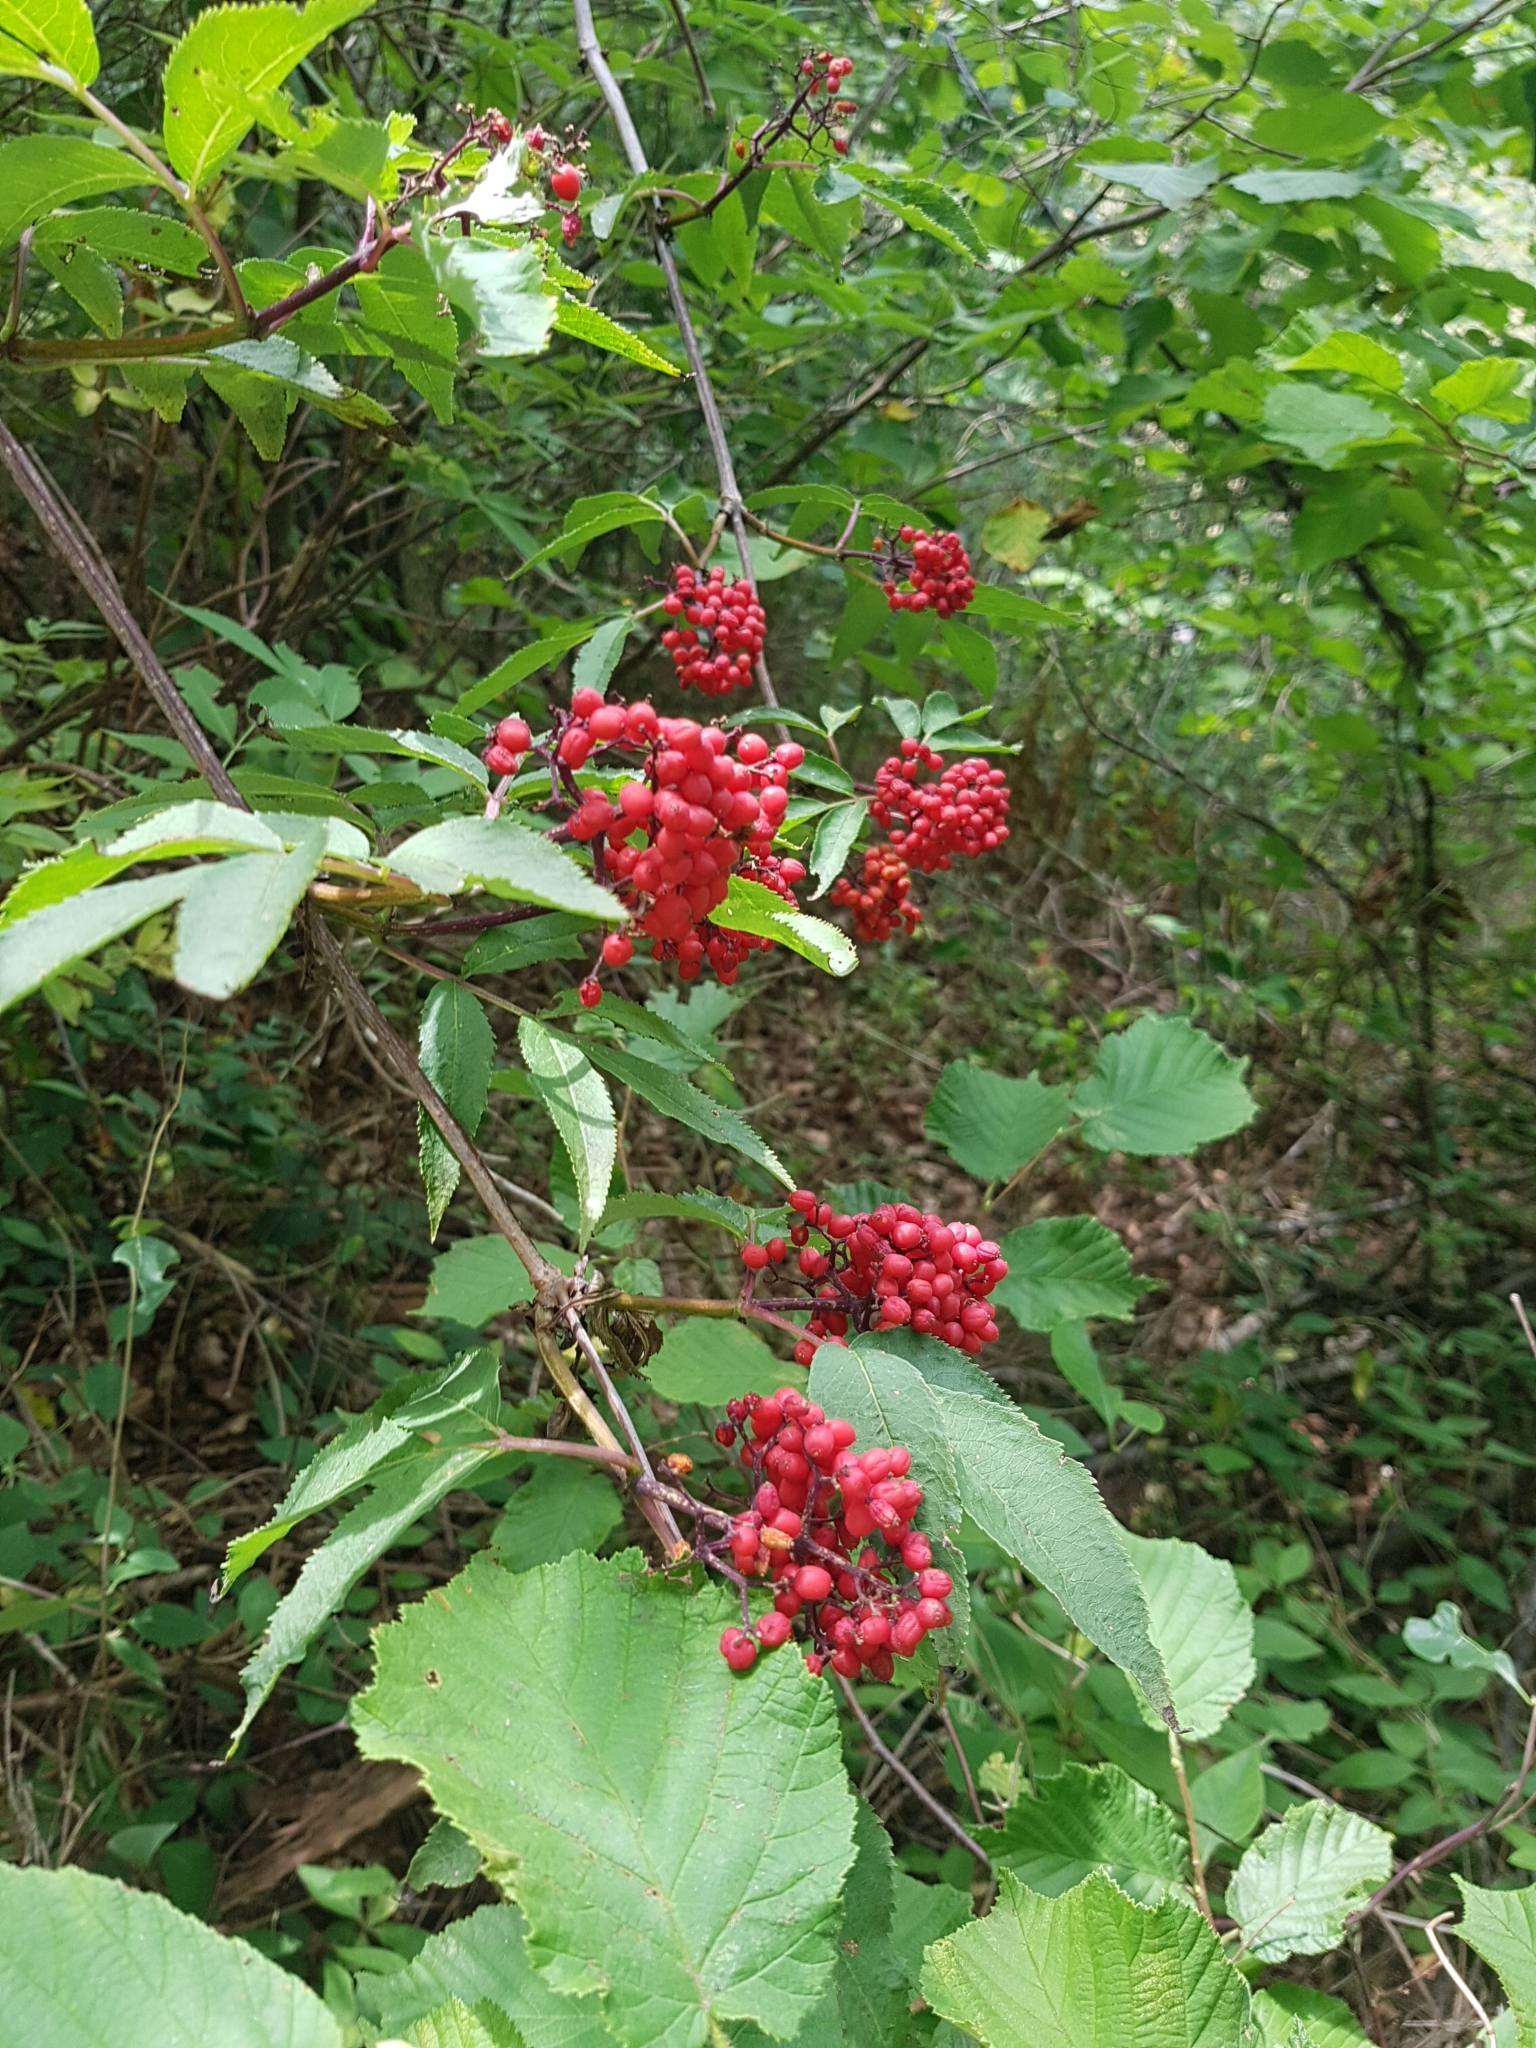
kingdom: Plantae
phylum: Tracheophyta
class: Magnoliopsida
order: Dipsacales
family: Viburnaceae
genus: Sambucus
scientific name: Sambucus racemosa
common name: Red-berried elder
